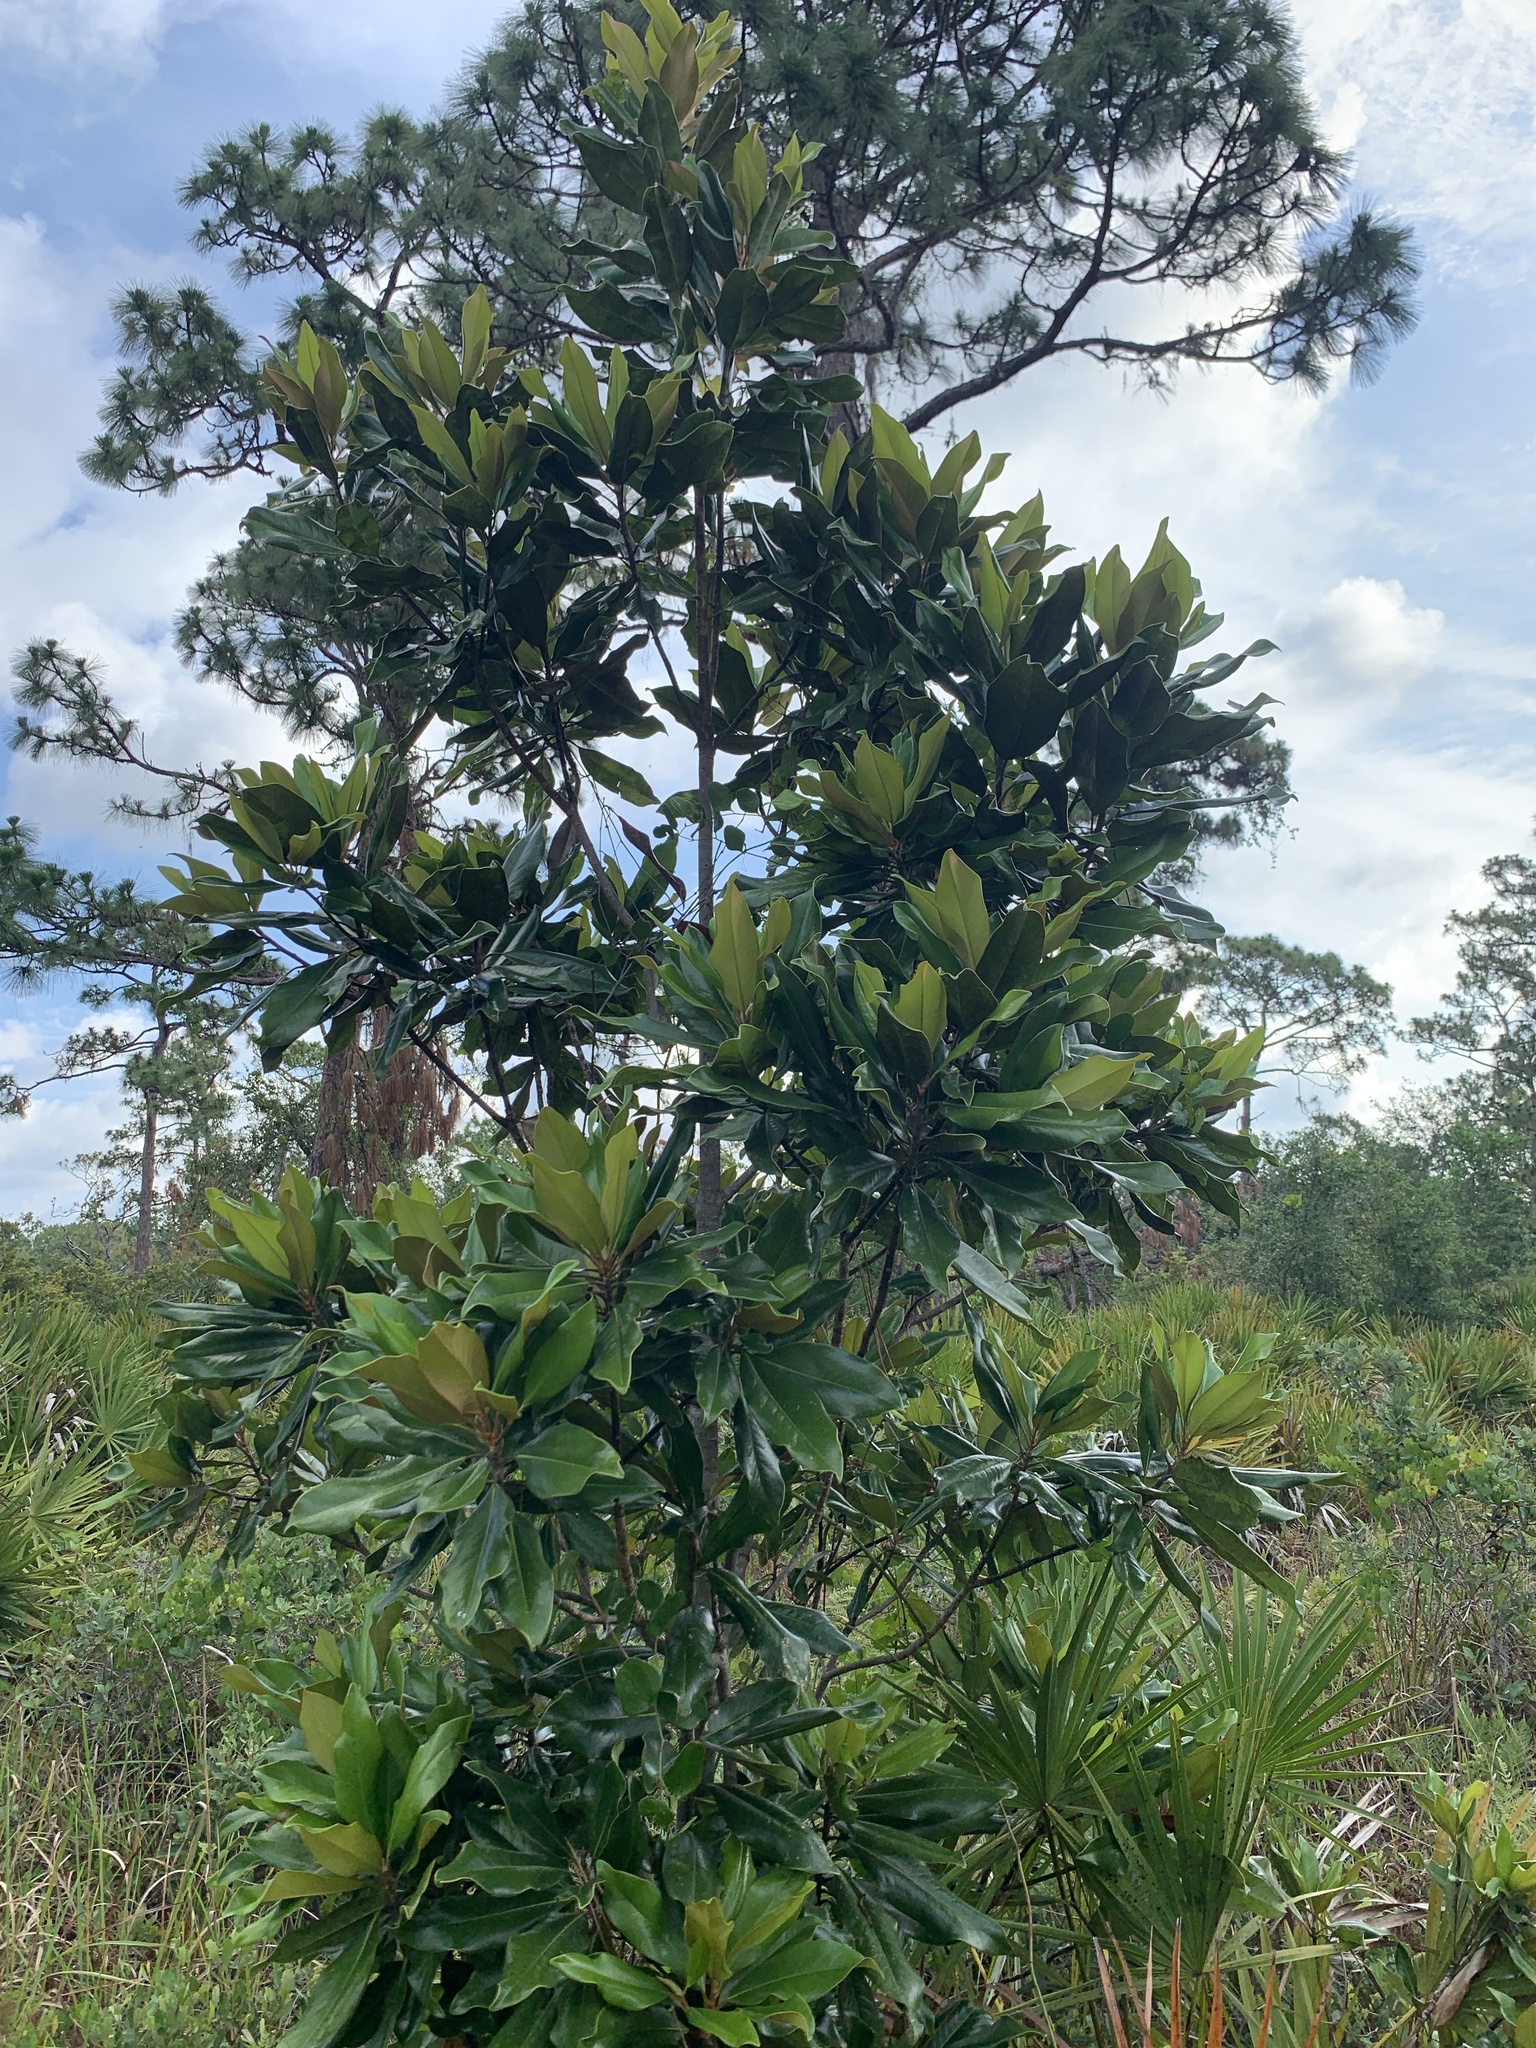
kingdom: Plantae
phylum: Tracheophyta
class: Magnoliopsida
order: Magnoliales
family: Magnoliaceae
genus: Magnolia
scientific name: Magnolia grandiflora
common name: Southern magnolia
